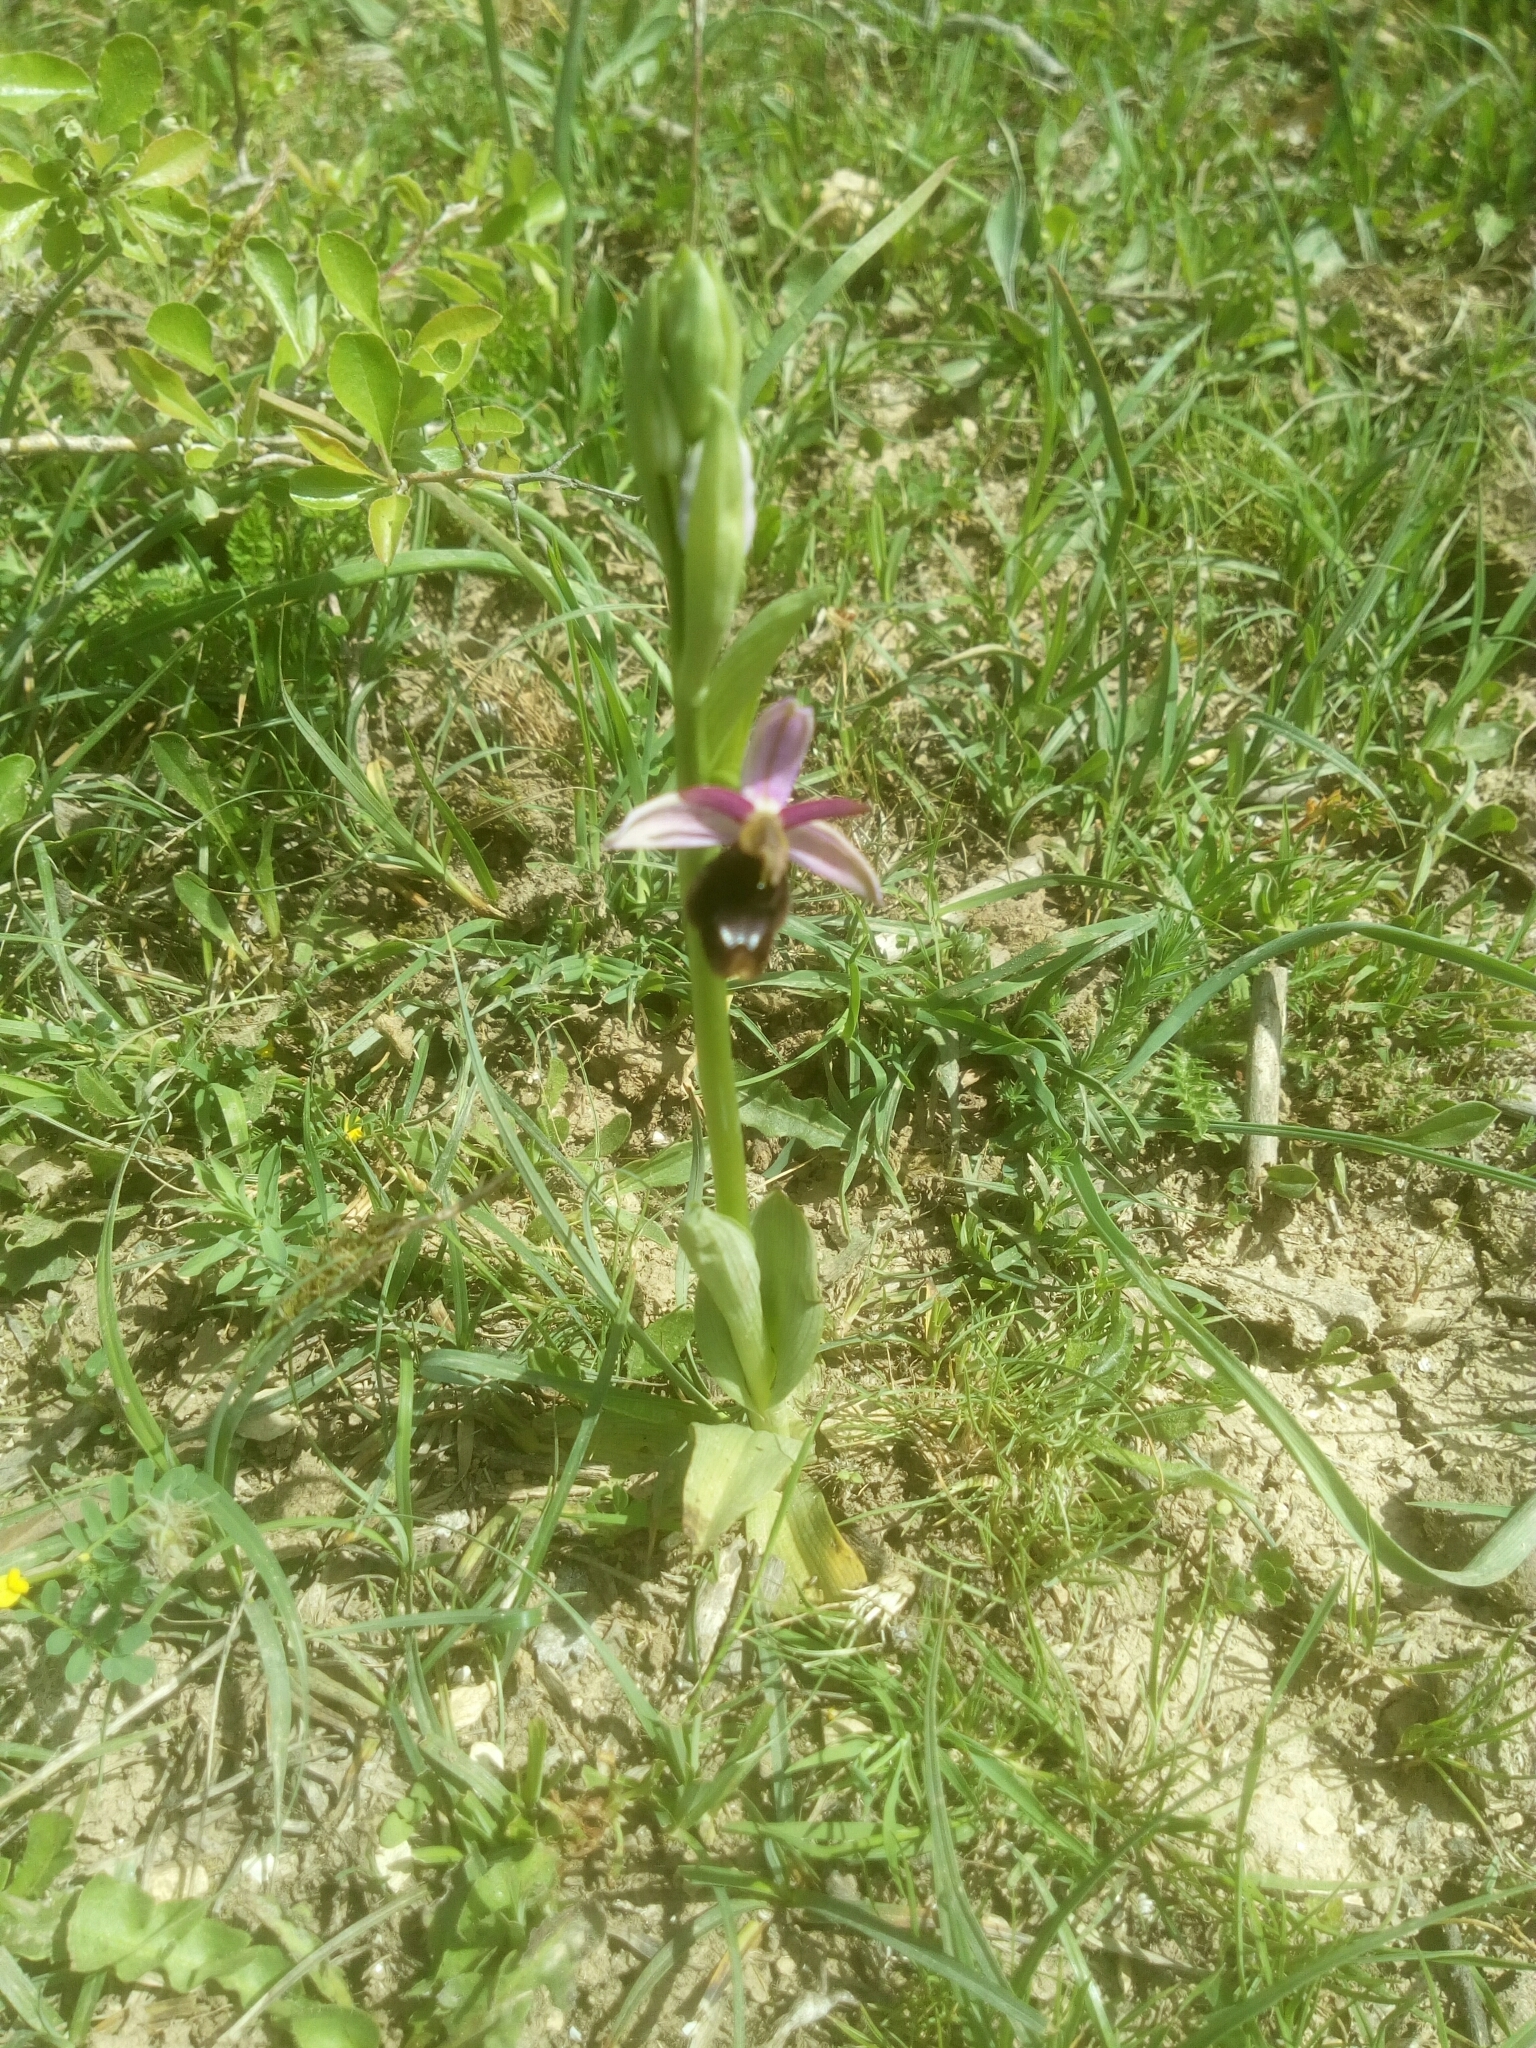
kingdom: Plantae
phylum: Tracheophyta
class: Liliopsida
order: Asparagales
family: Orchidaceae
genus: Ophrys
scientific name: Ophrys bertolonii
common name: Bertoloni's bee orchid
